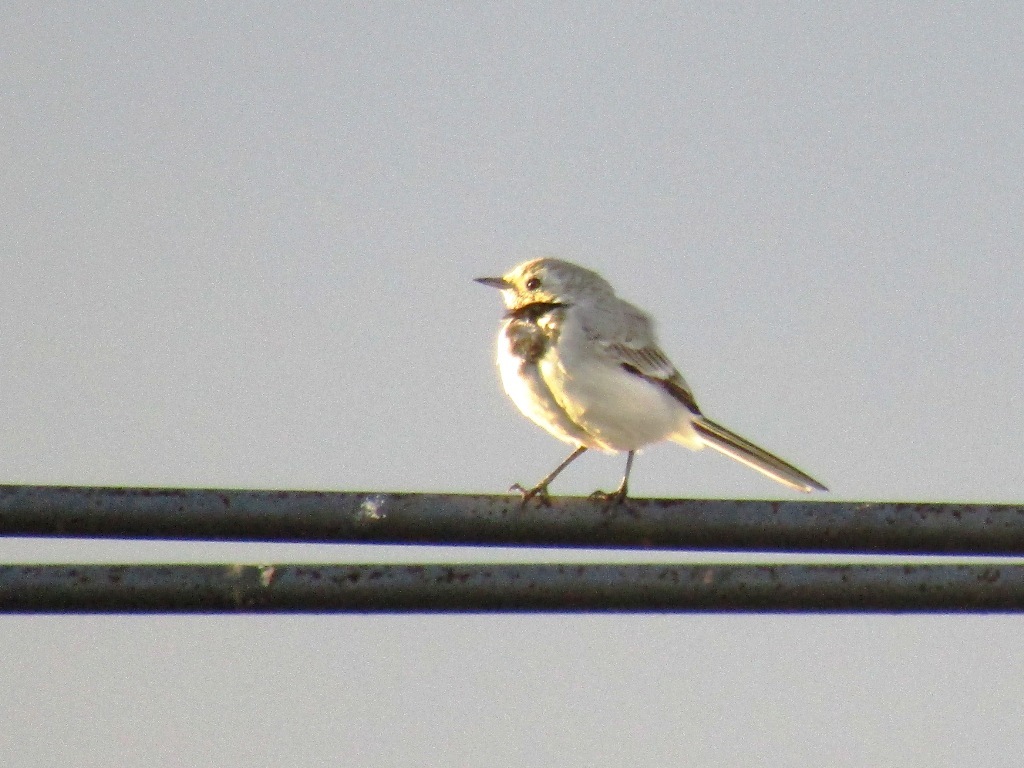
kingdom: Animalia
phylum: Chordata
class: Aves
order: Passeriformes
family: Motacillidae
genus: Motacilla
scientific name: Motacilla alba
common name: White wagtail
